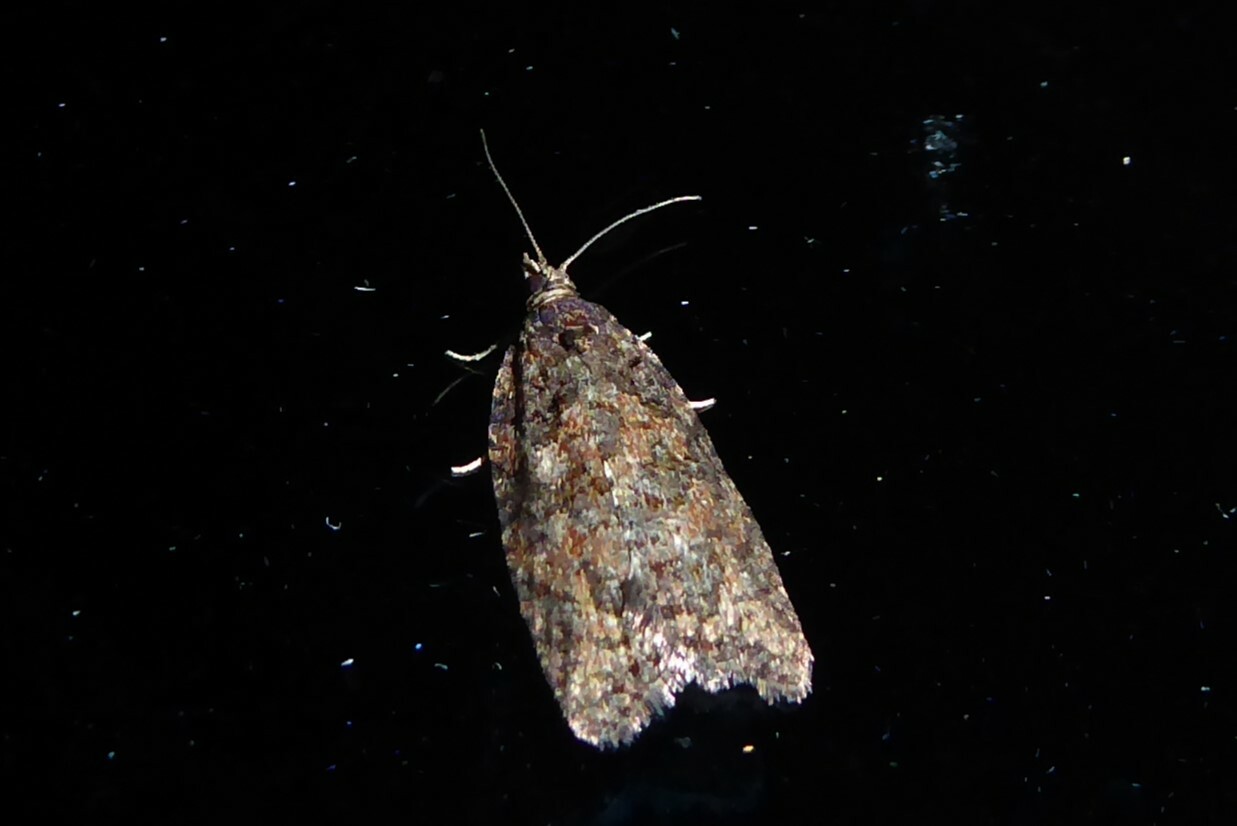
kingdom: Animalia
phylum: Arthropoda
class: Insecta
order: Lepidoptera
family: Tortricidae
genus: Capua
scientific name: Capua intractana
